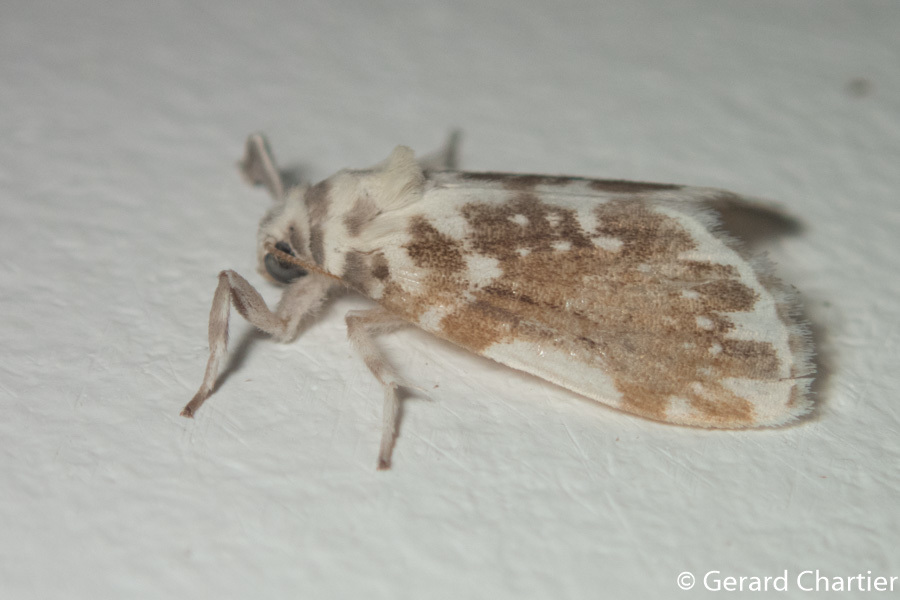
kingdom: Animalia
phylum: Arthropoda
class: Insecta
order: Lepidoptera
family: Erebidae
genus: Pseudoadites
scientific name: Pseudoadites frigida
